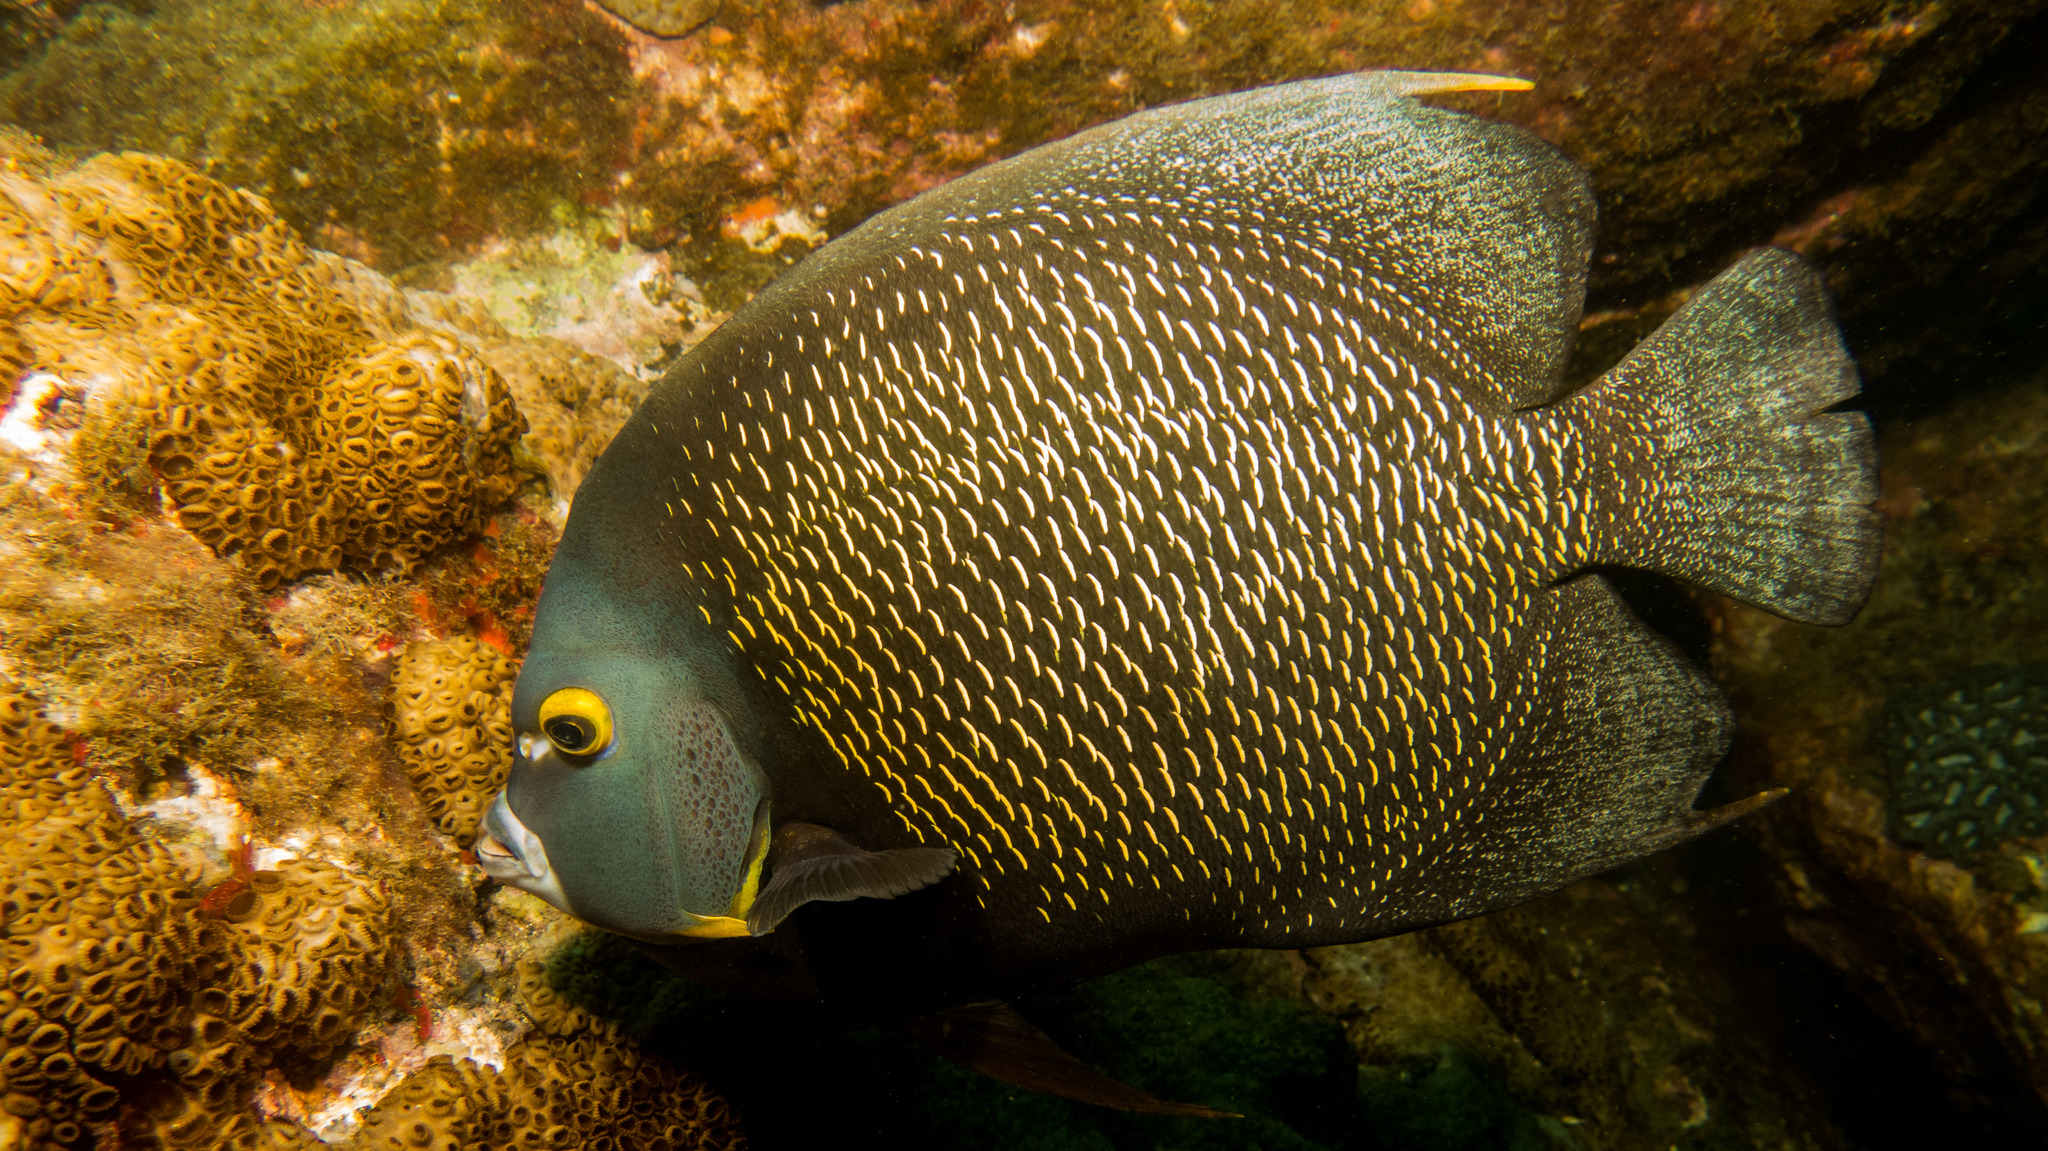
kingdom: Animalia
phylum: Chordata
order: Perciformes
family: Pomacanthidae
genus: Pomacanthus
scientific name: Pomacanthus paru
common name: French angelfish
